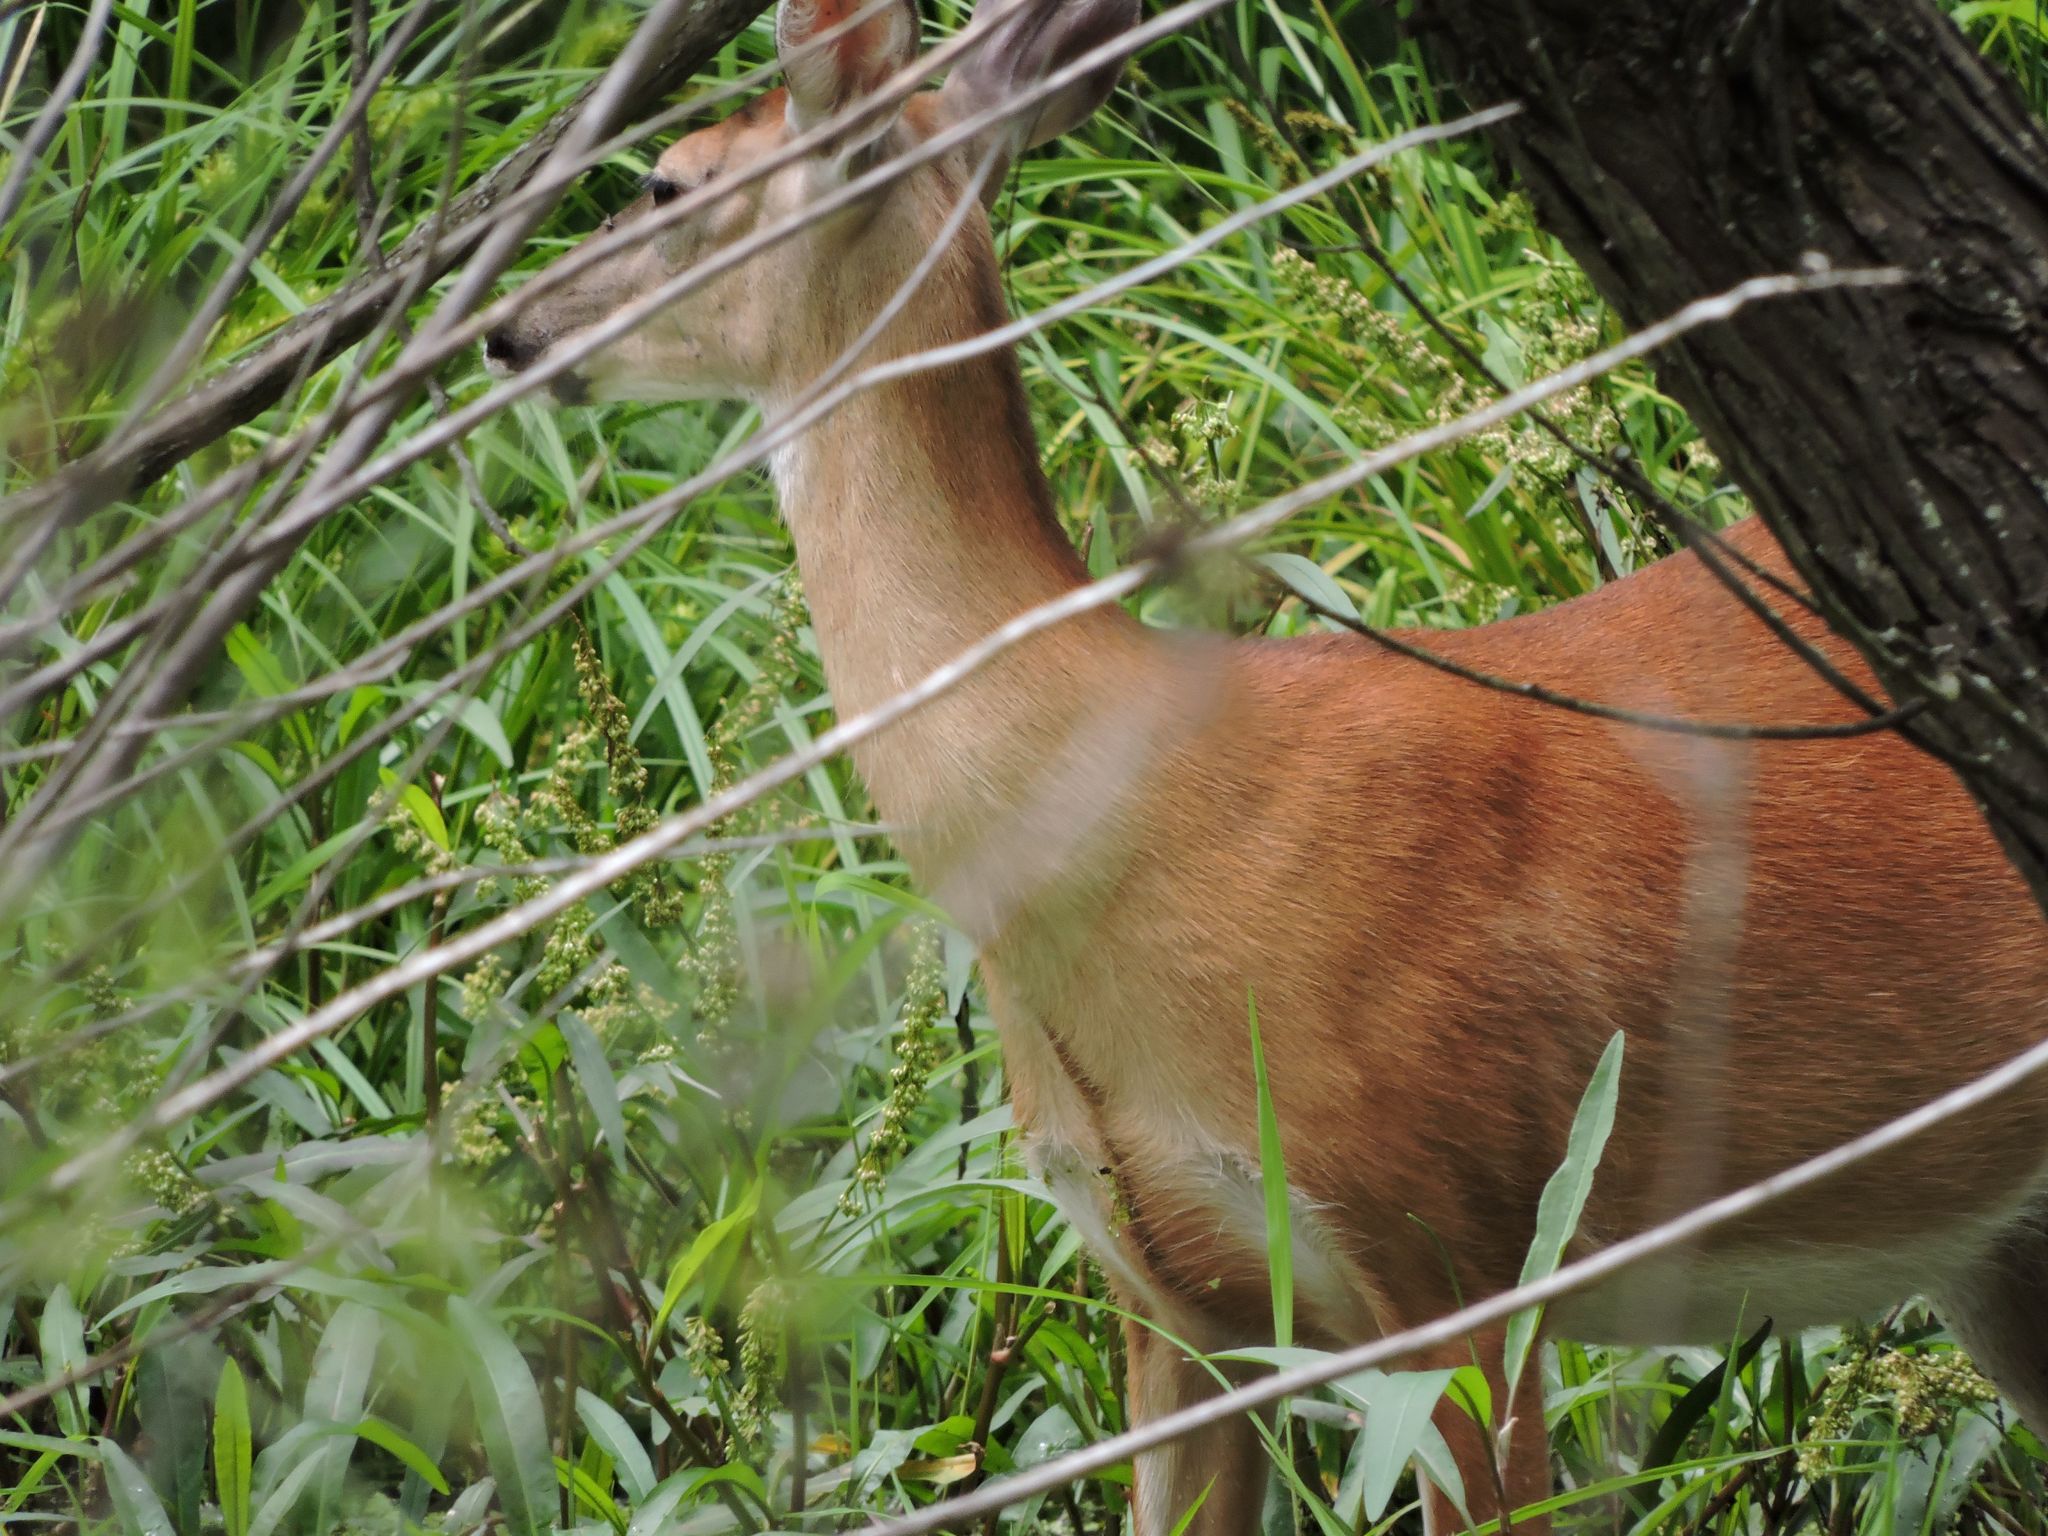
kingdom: Animalia
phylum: Chordata
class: Mammalia
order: Artiodactyla
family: Cervidae
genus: Odocoileus
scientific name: Odocoileus virginianus
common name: White-tailed deer
